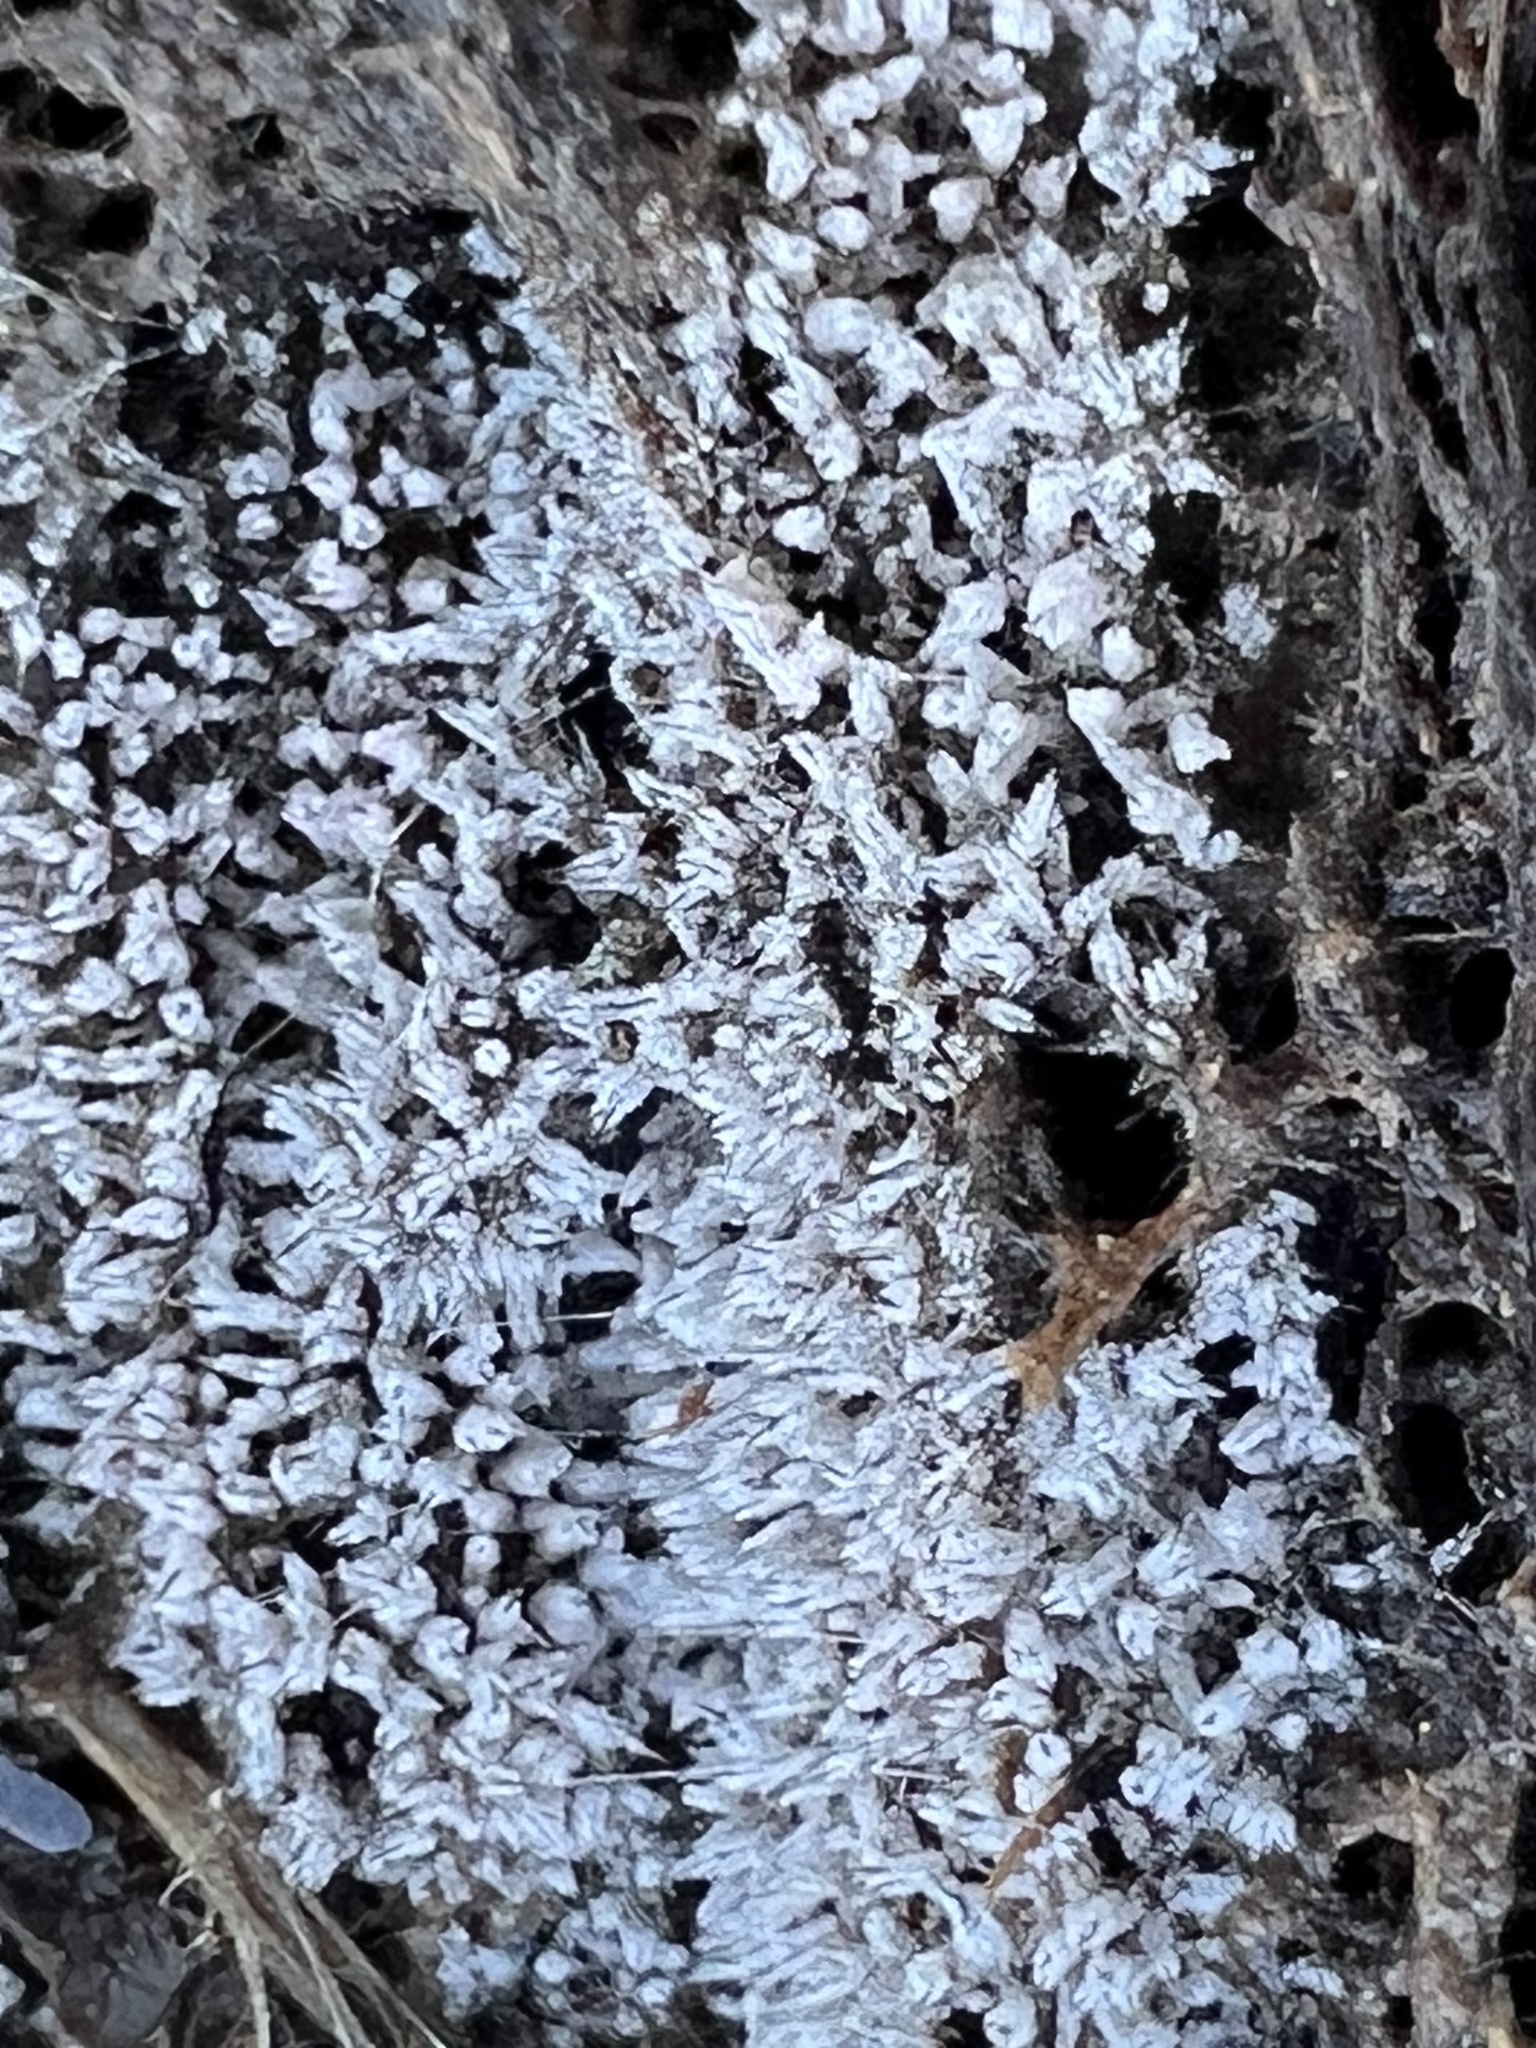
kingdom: Protozoa
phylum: Mycetozoa
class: Protosteliomycetes
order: Ceratiomyxales
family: Ceratiomyxaceae
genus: Ceratiomyxa
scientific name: Ceratiomyxa fruticulosa
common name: Honeycomb coral slime mold
